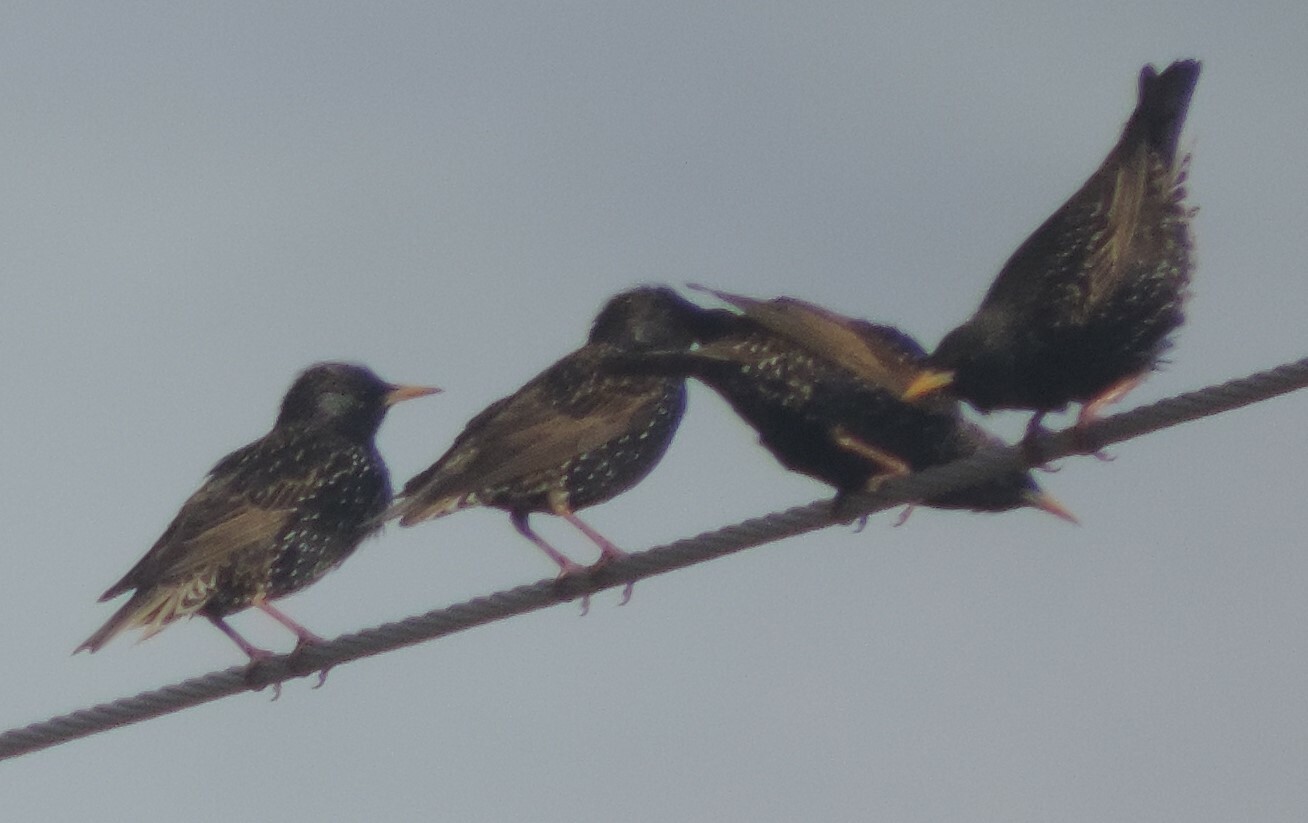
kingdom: Animalia
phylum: Chordata
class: Aves
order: Passeriformes
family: Sturnidae
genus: Sturnus
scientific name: Sturnus vulgaris
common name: Common starling
